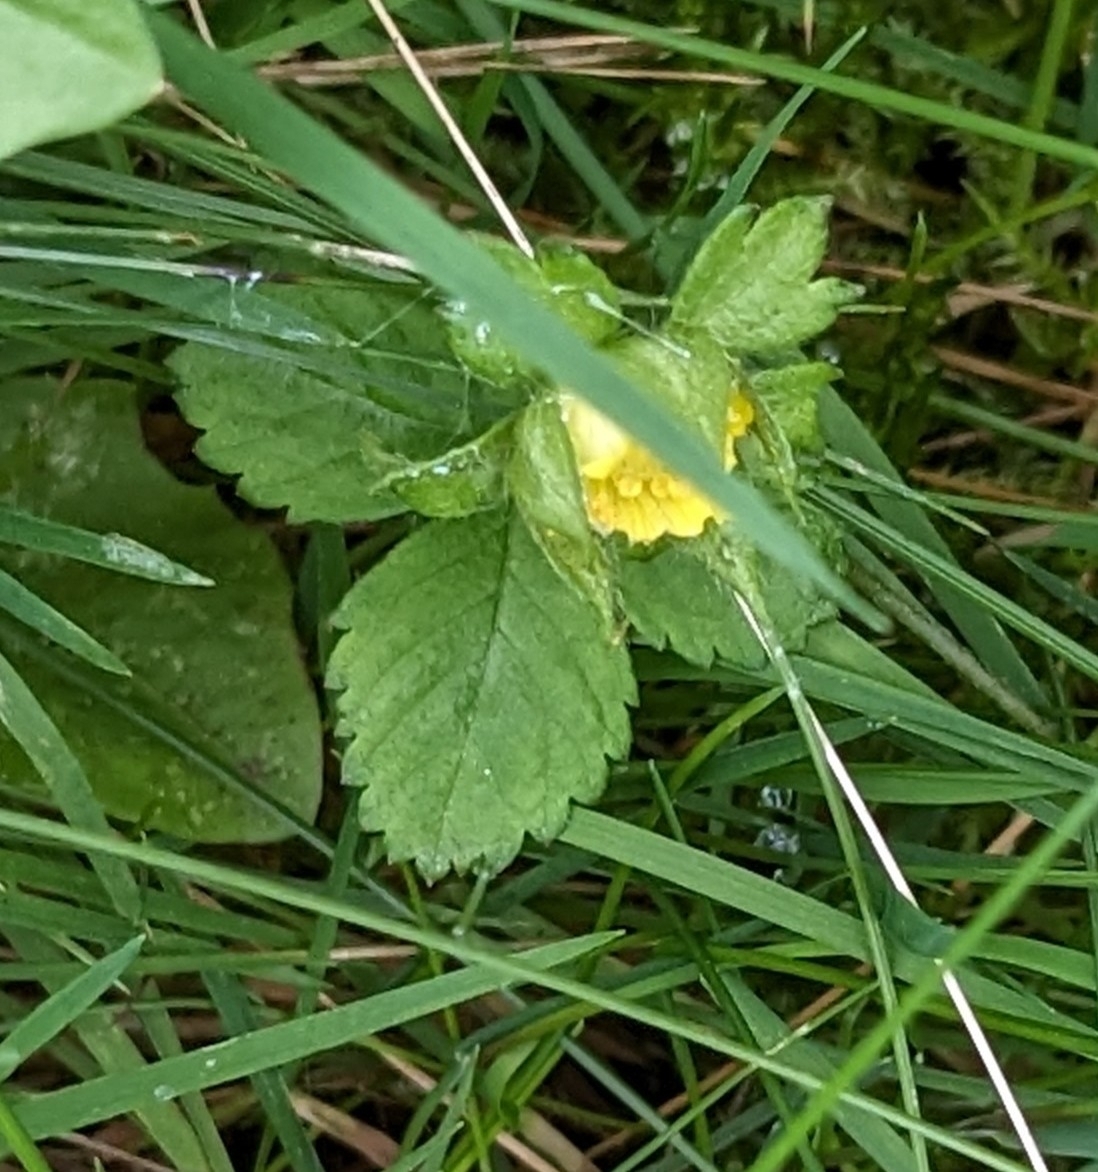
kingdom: Plantae
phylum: Tracheophyta
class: Magnoliopsida
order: Rosales
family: Rosaceae
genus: Potentilla
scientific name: Potentilla indica
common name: Yellow-flowered strawberry
